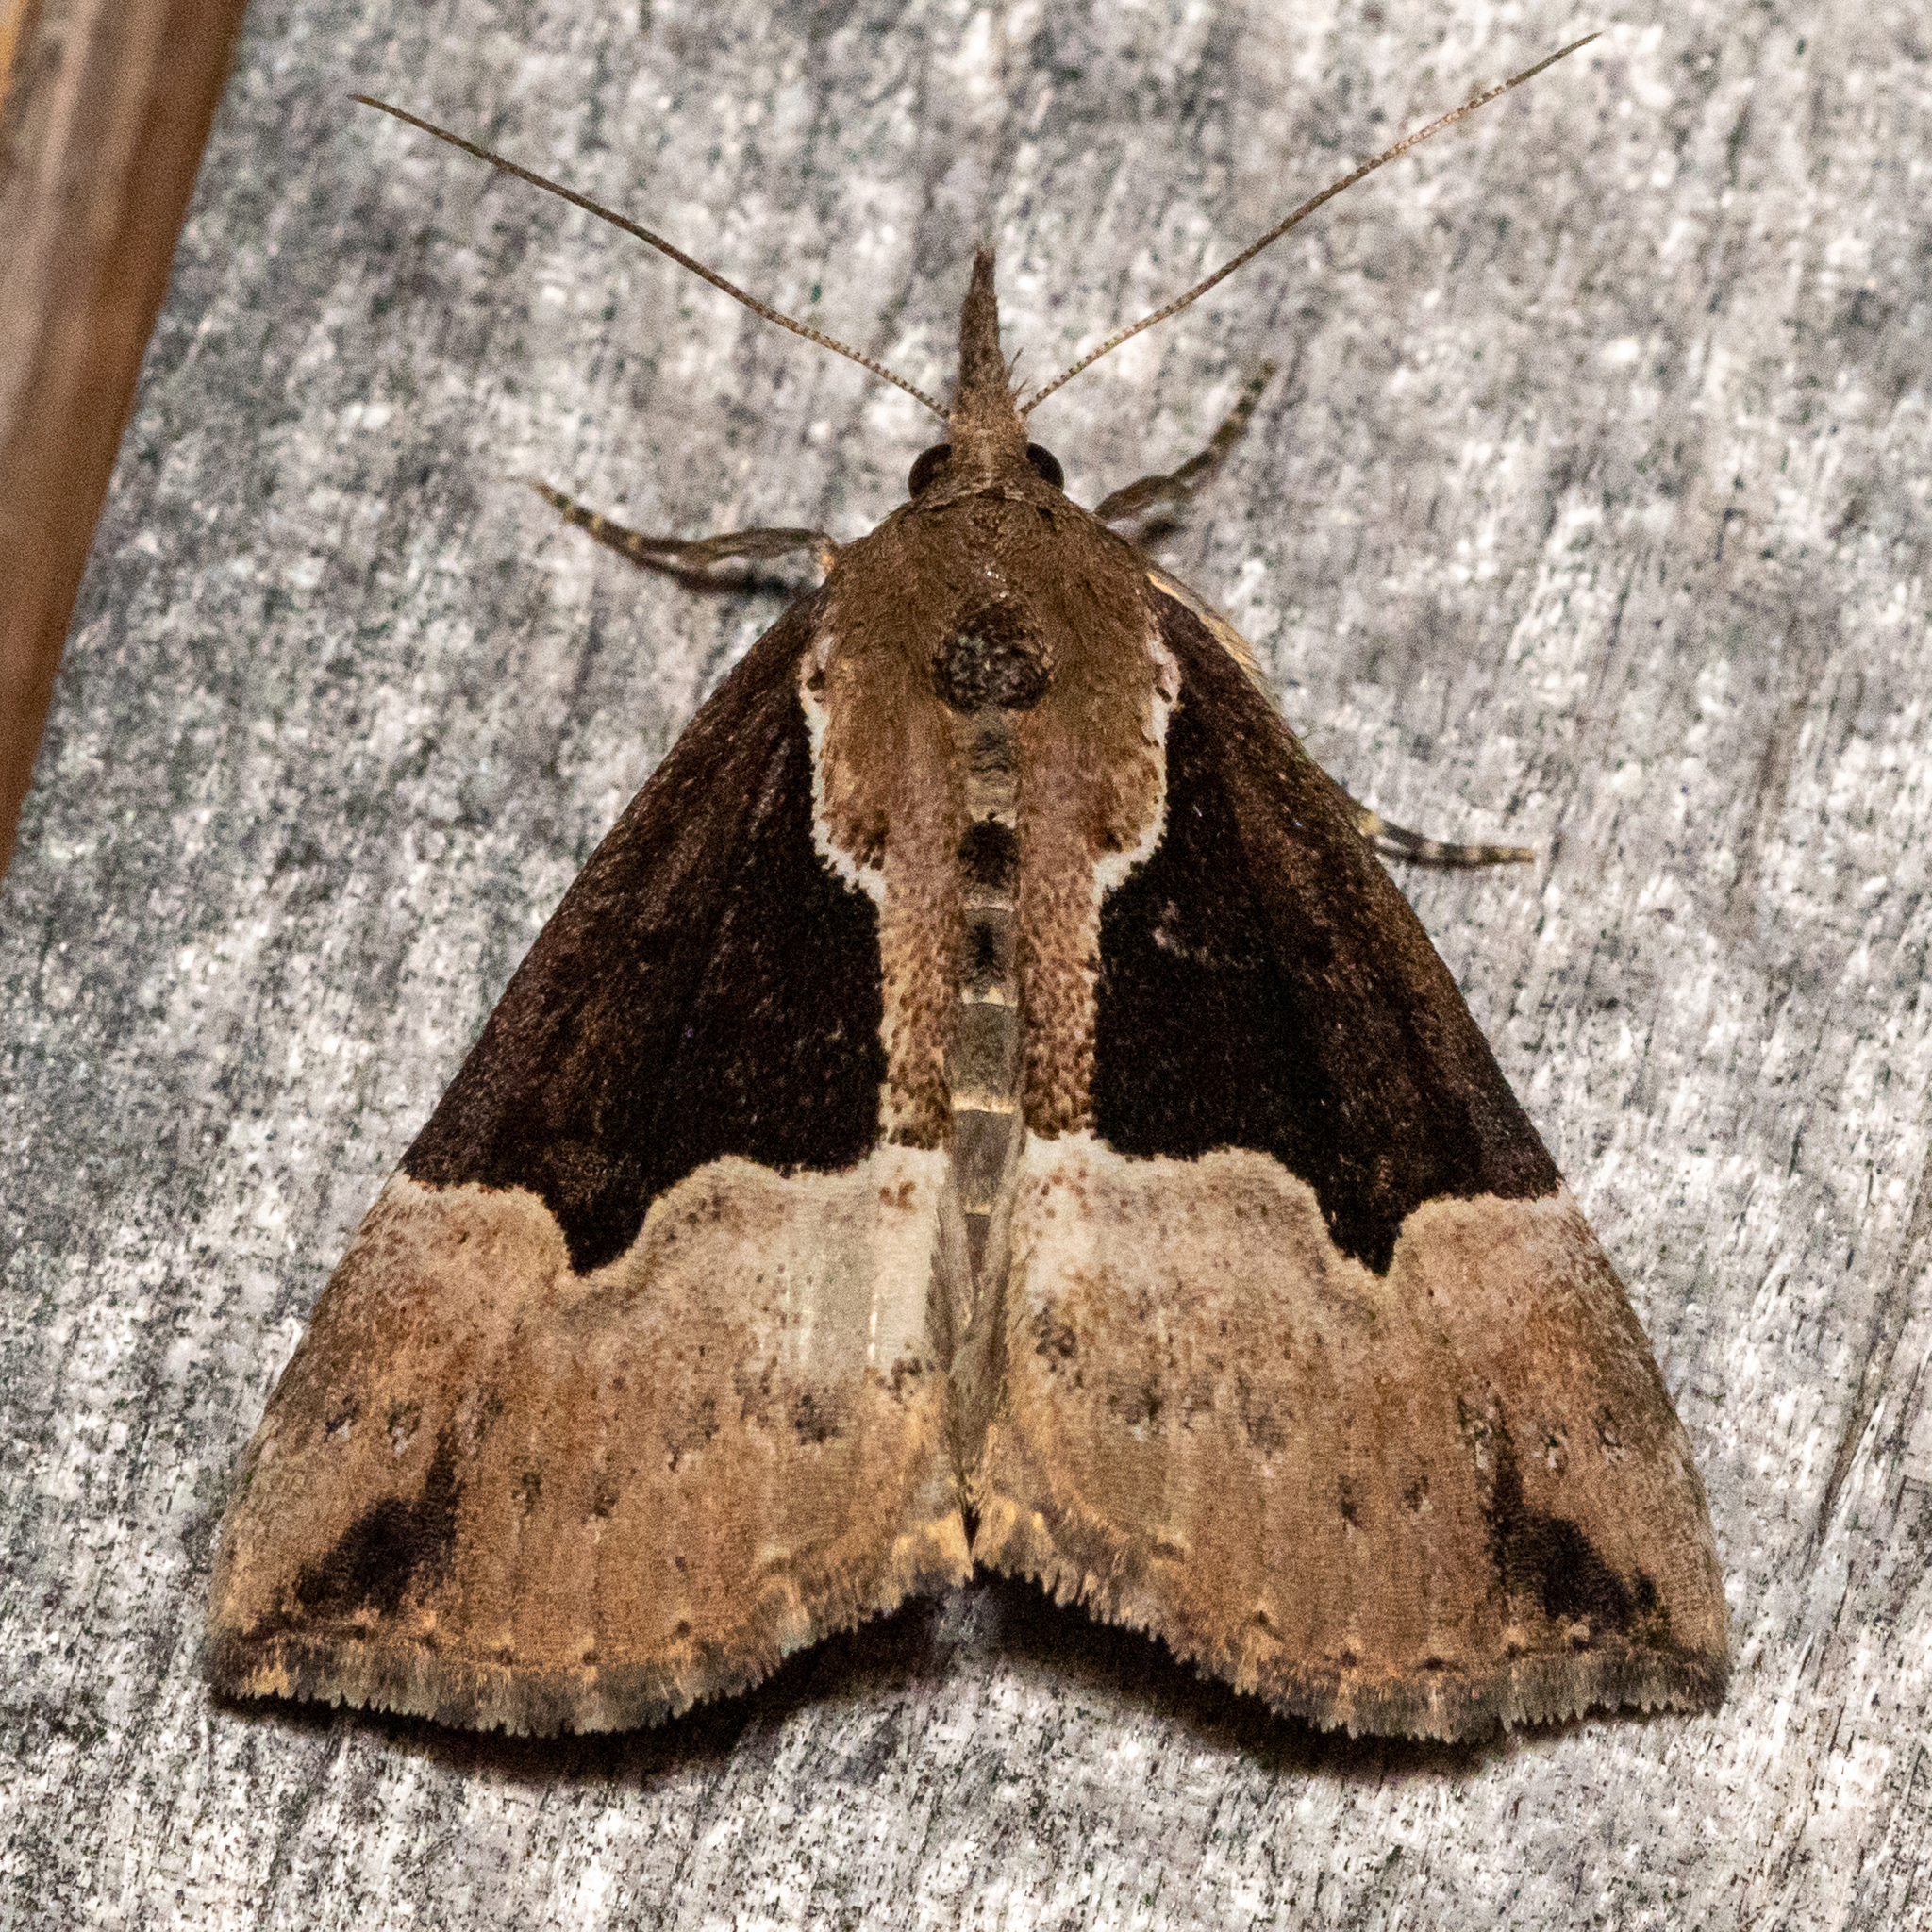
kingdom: Animalia
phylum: Arthropoda
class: Insecta
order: Lepidoptera
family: Erebidae
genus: Hypena
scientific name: Hypena bijugalis
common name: Dimorphic bomolocha moth
